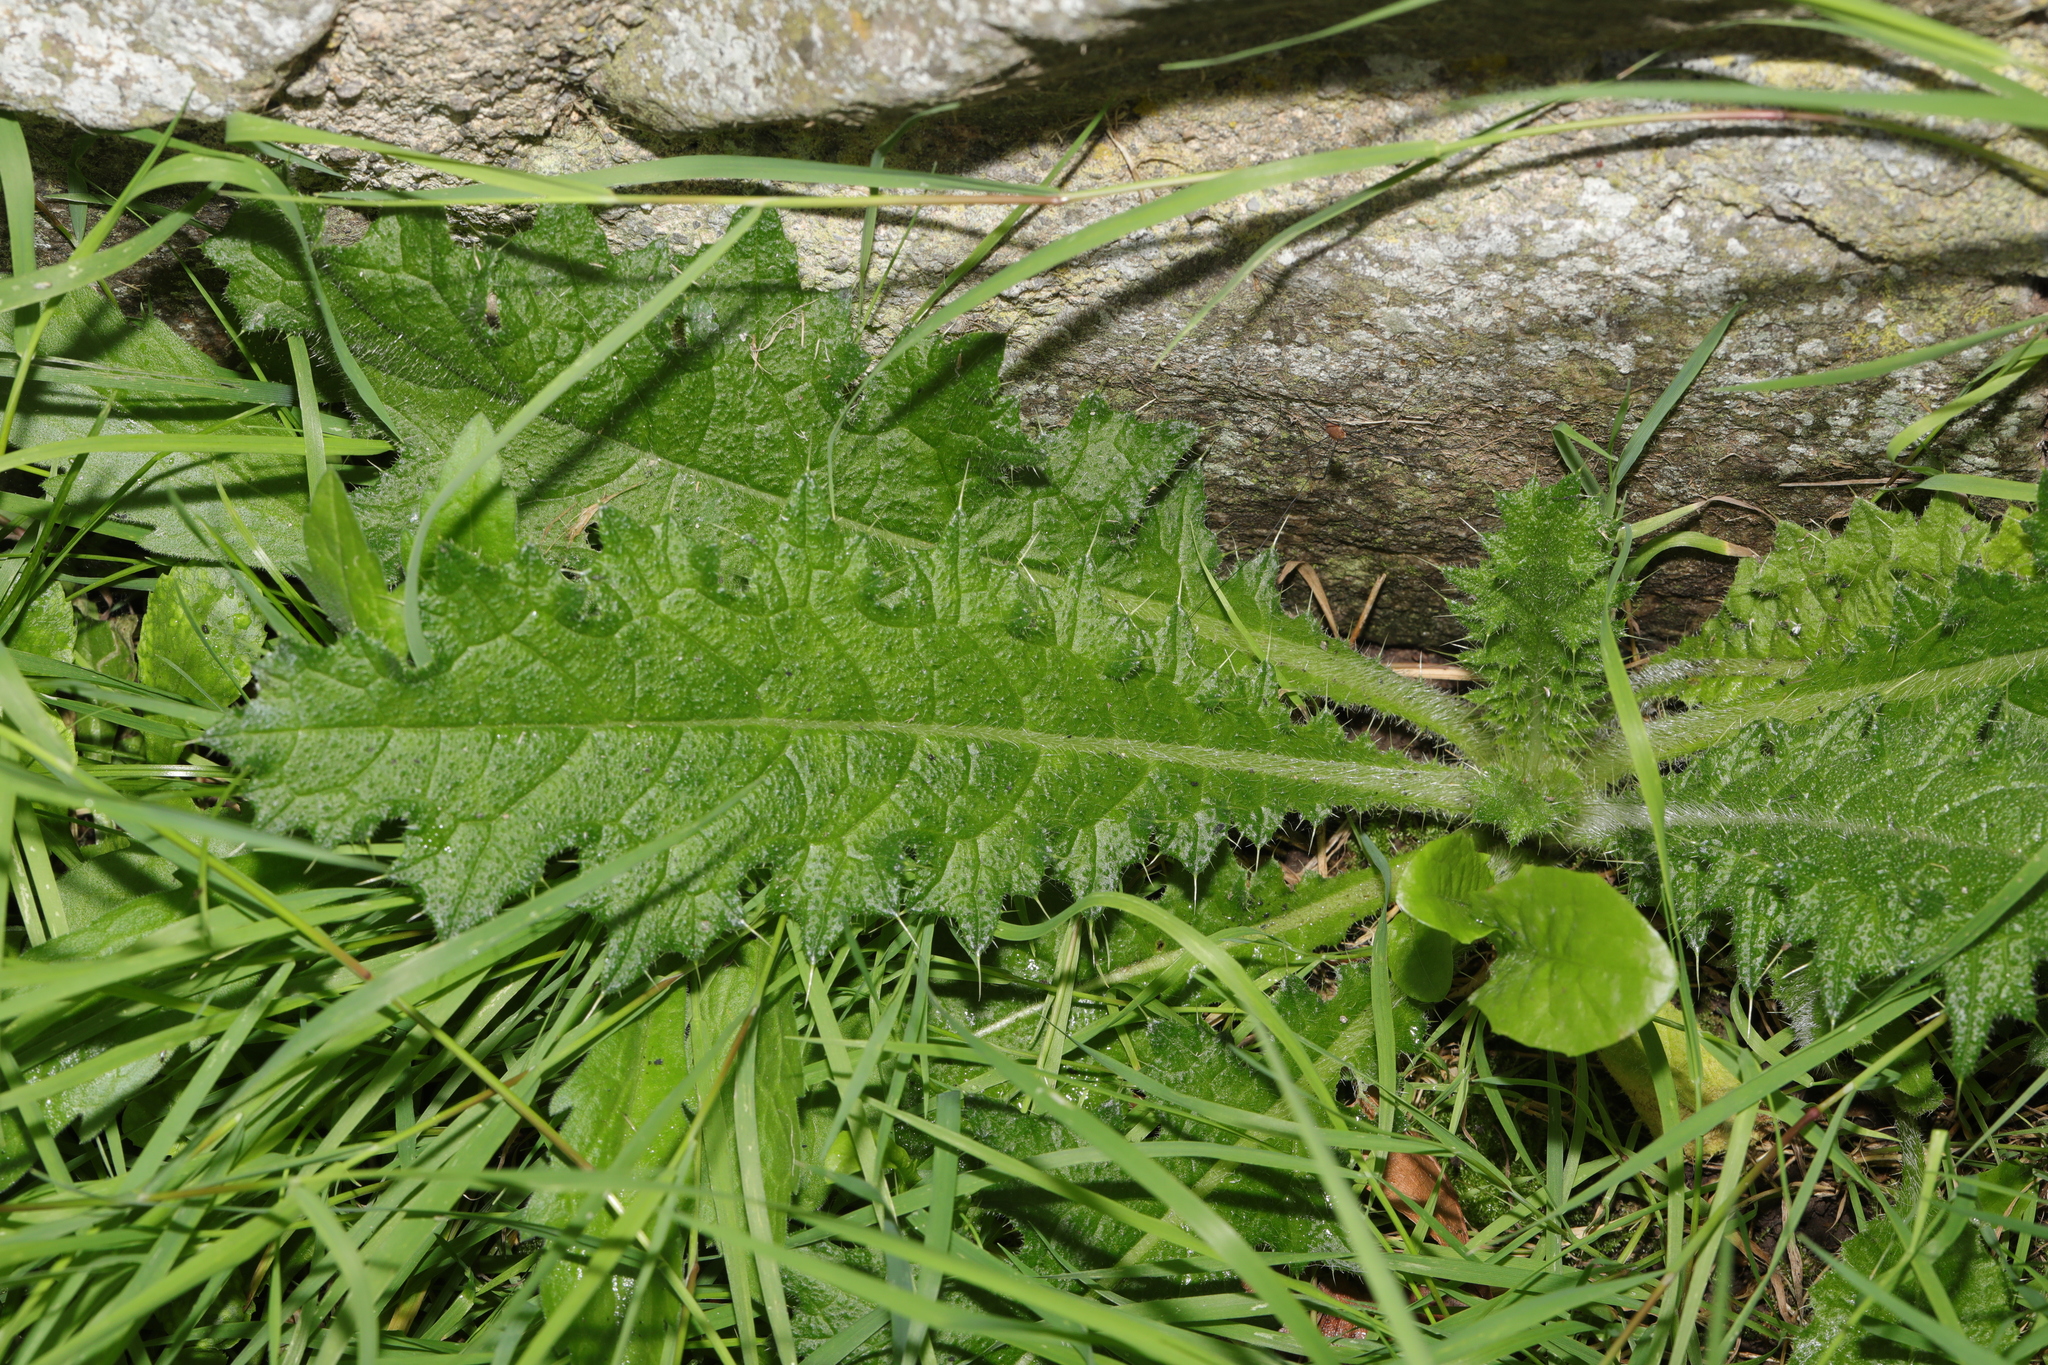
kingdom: Plantae
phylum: Tracheophyta
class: Magnoliopsida
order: Asterales
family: Asteraceae
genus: Cirsium
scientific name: Cirsium vulgare
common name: Bull thistle
